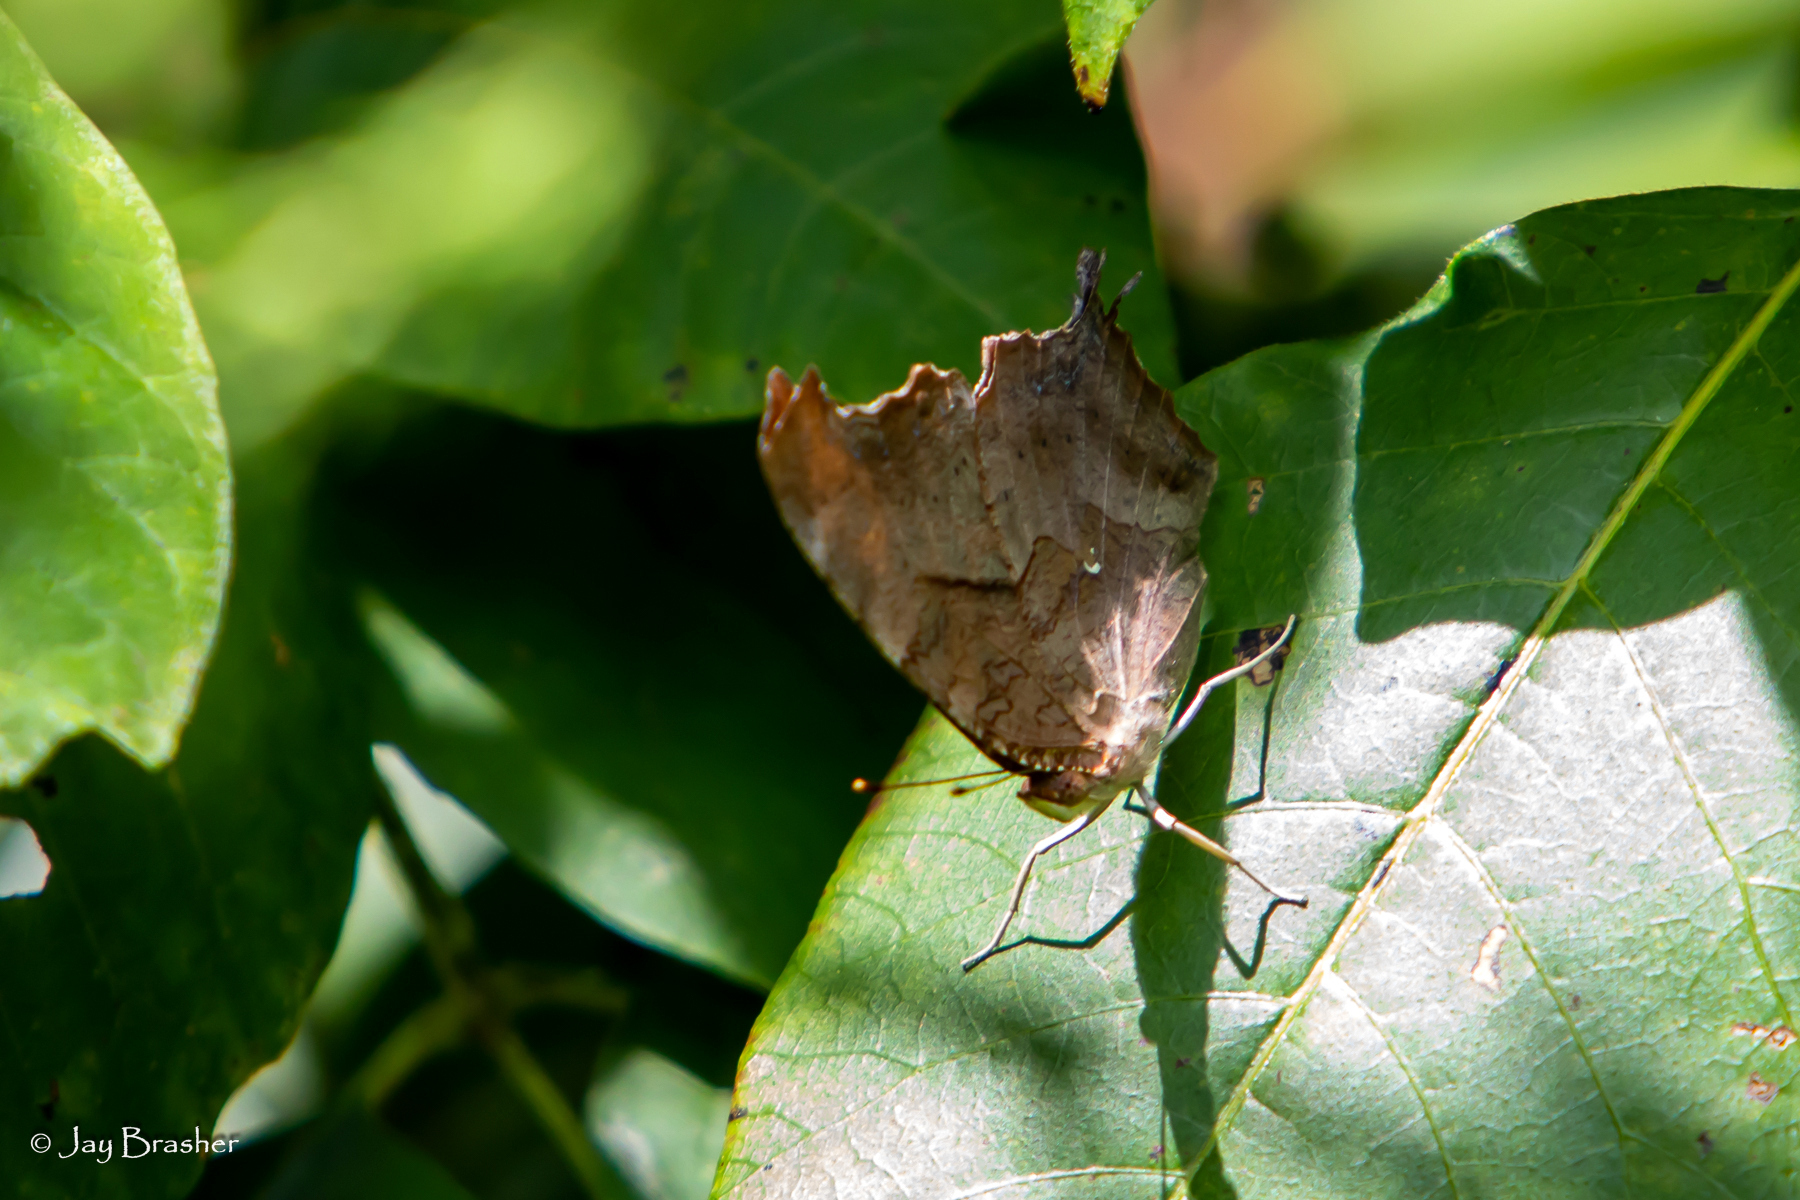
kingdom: Animalia
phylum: Arthropoda
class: Insecta
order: Lepidoptera
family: Nymphalidae
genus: Polygonia
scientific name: Polygonia interrogationis
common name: Question mark
